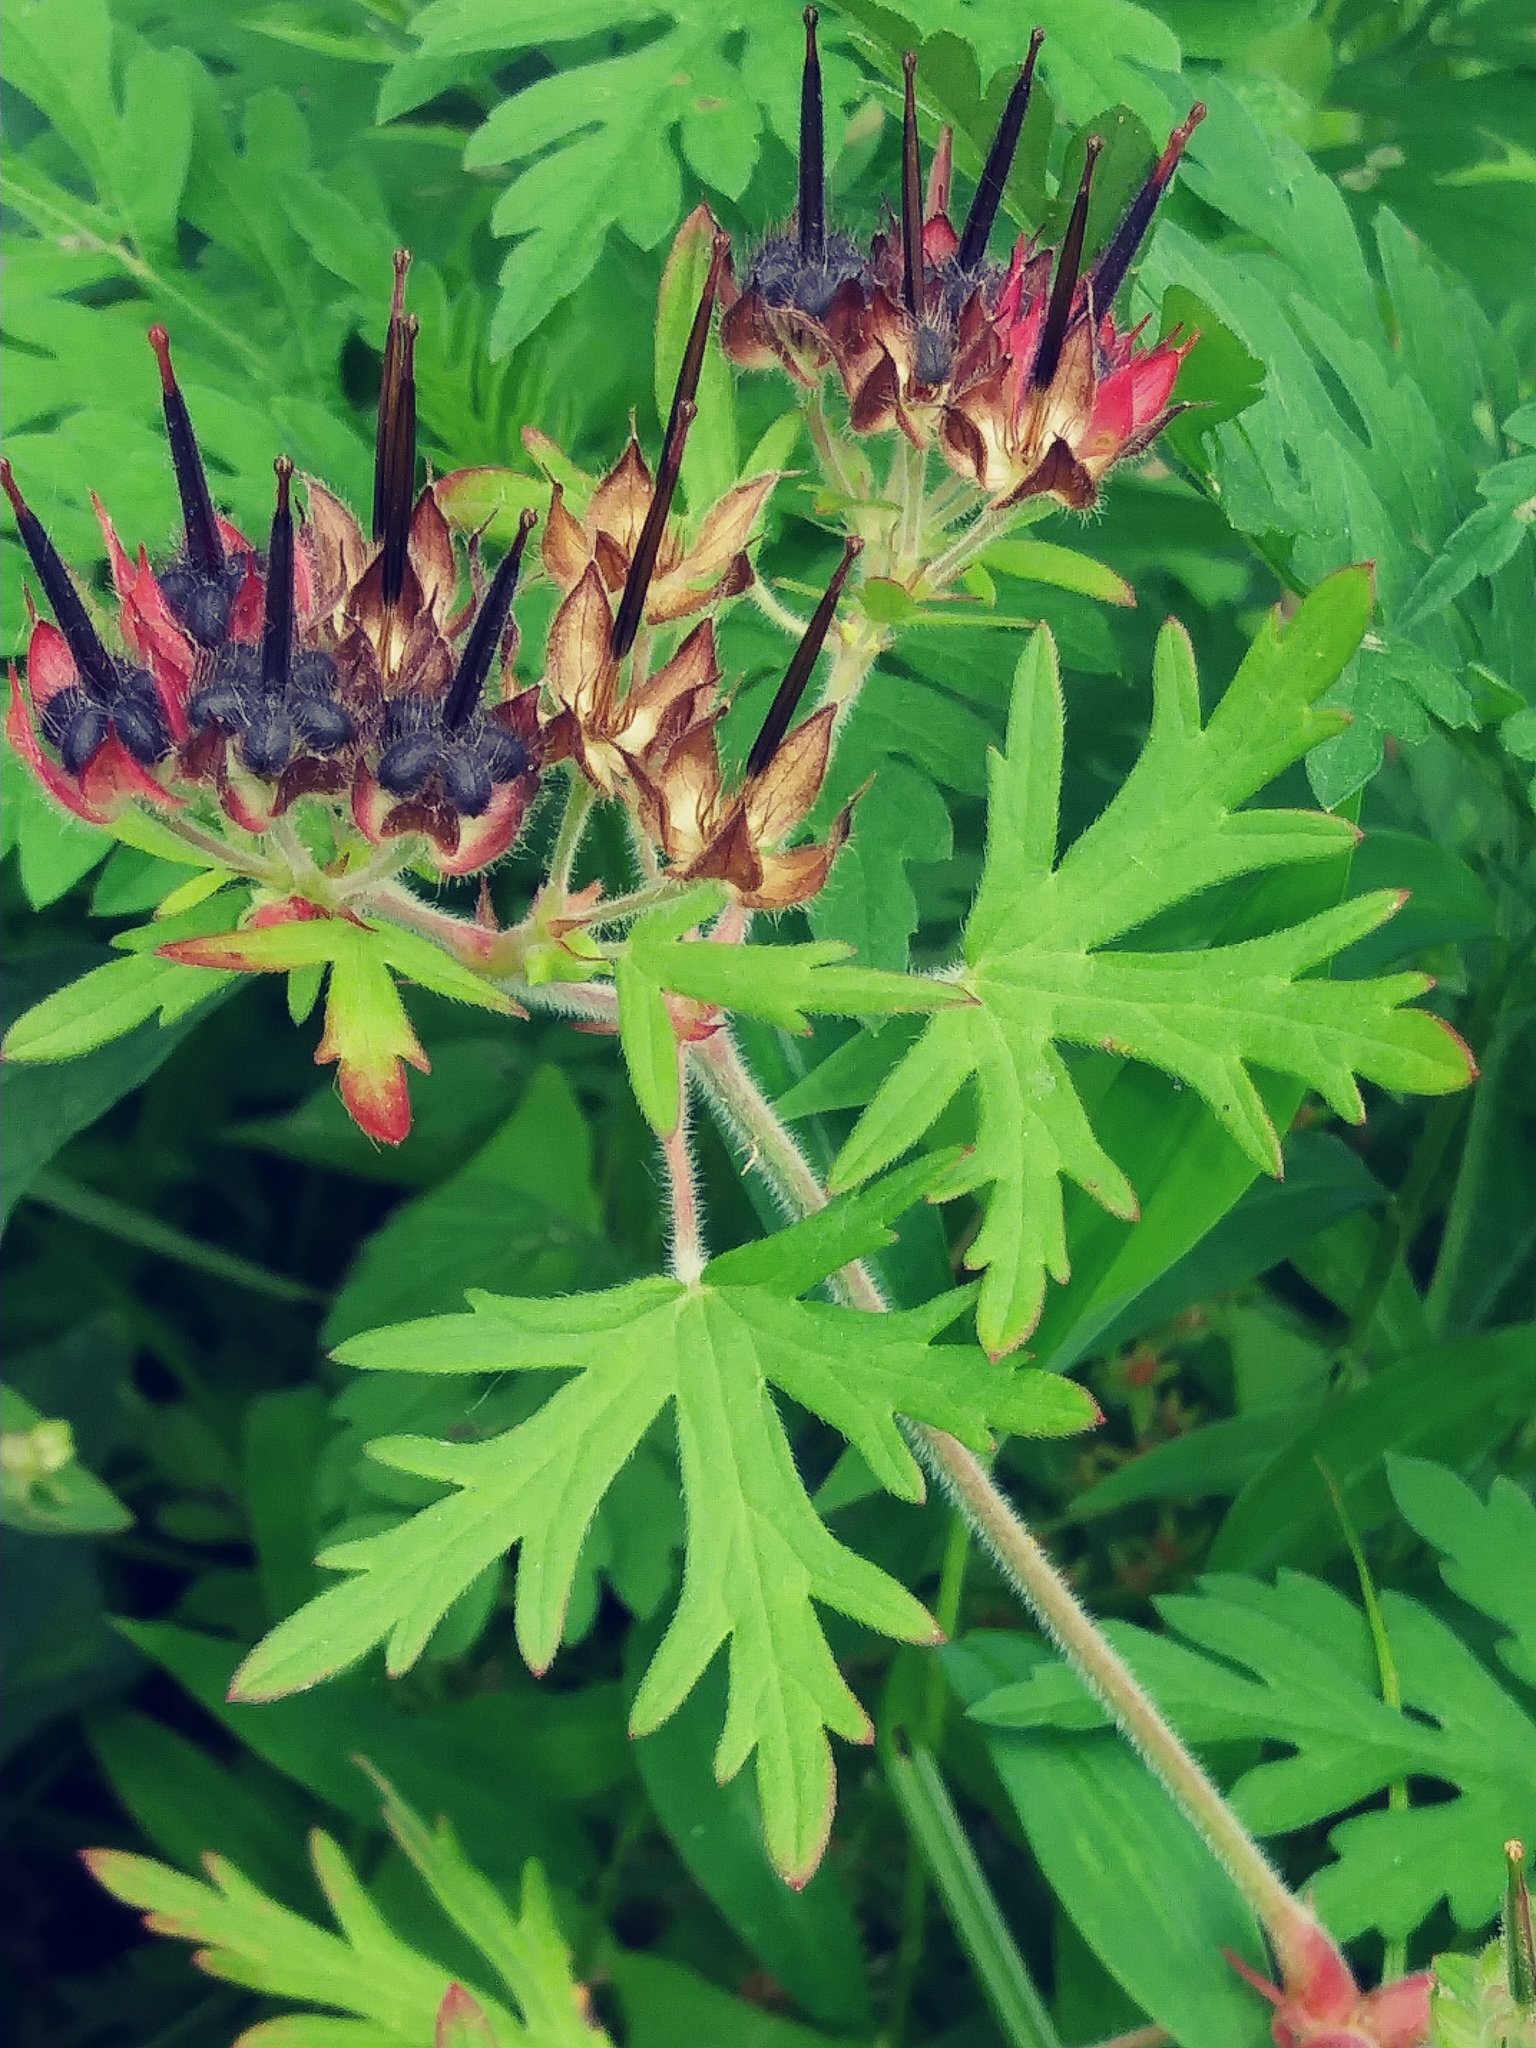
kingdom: Plantae
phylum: Tracheophyta
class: Magnoliopsida
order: Geraniales
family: Geraniaceae
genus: Geranium
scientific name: Geranium carolinianum
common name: Carolina crane's-bill
